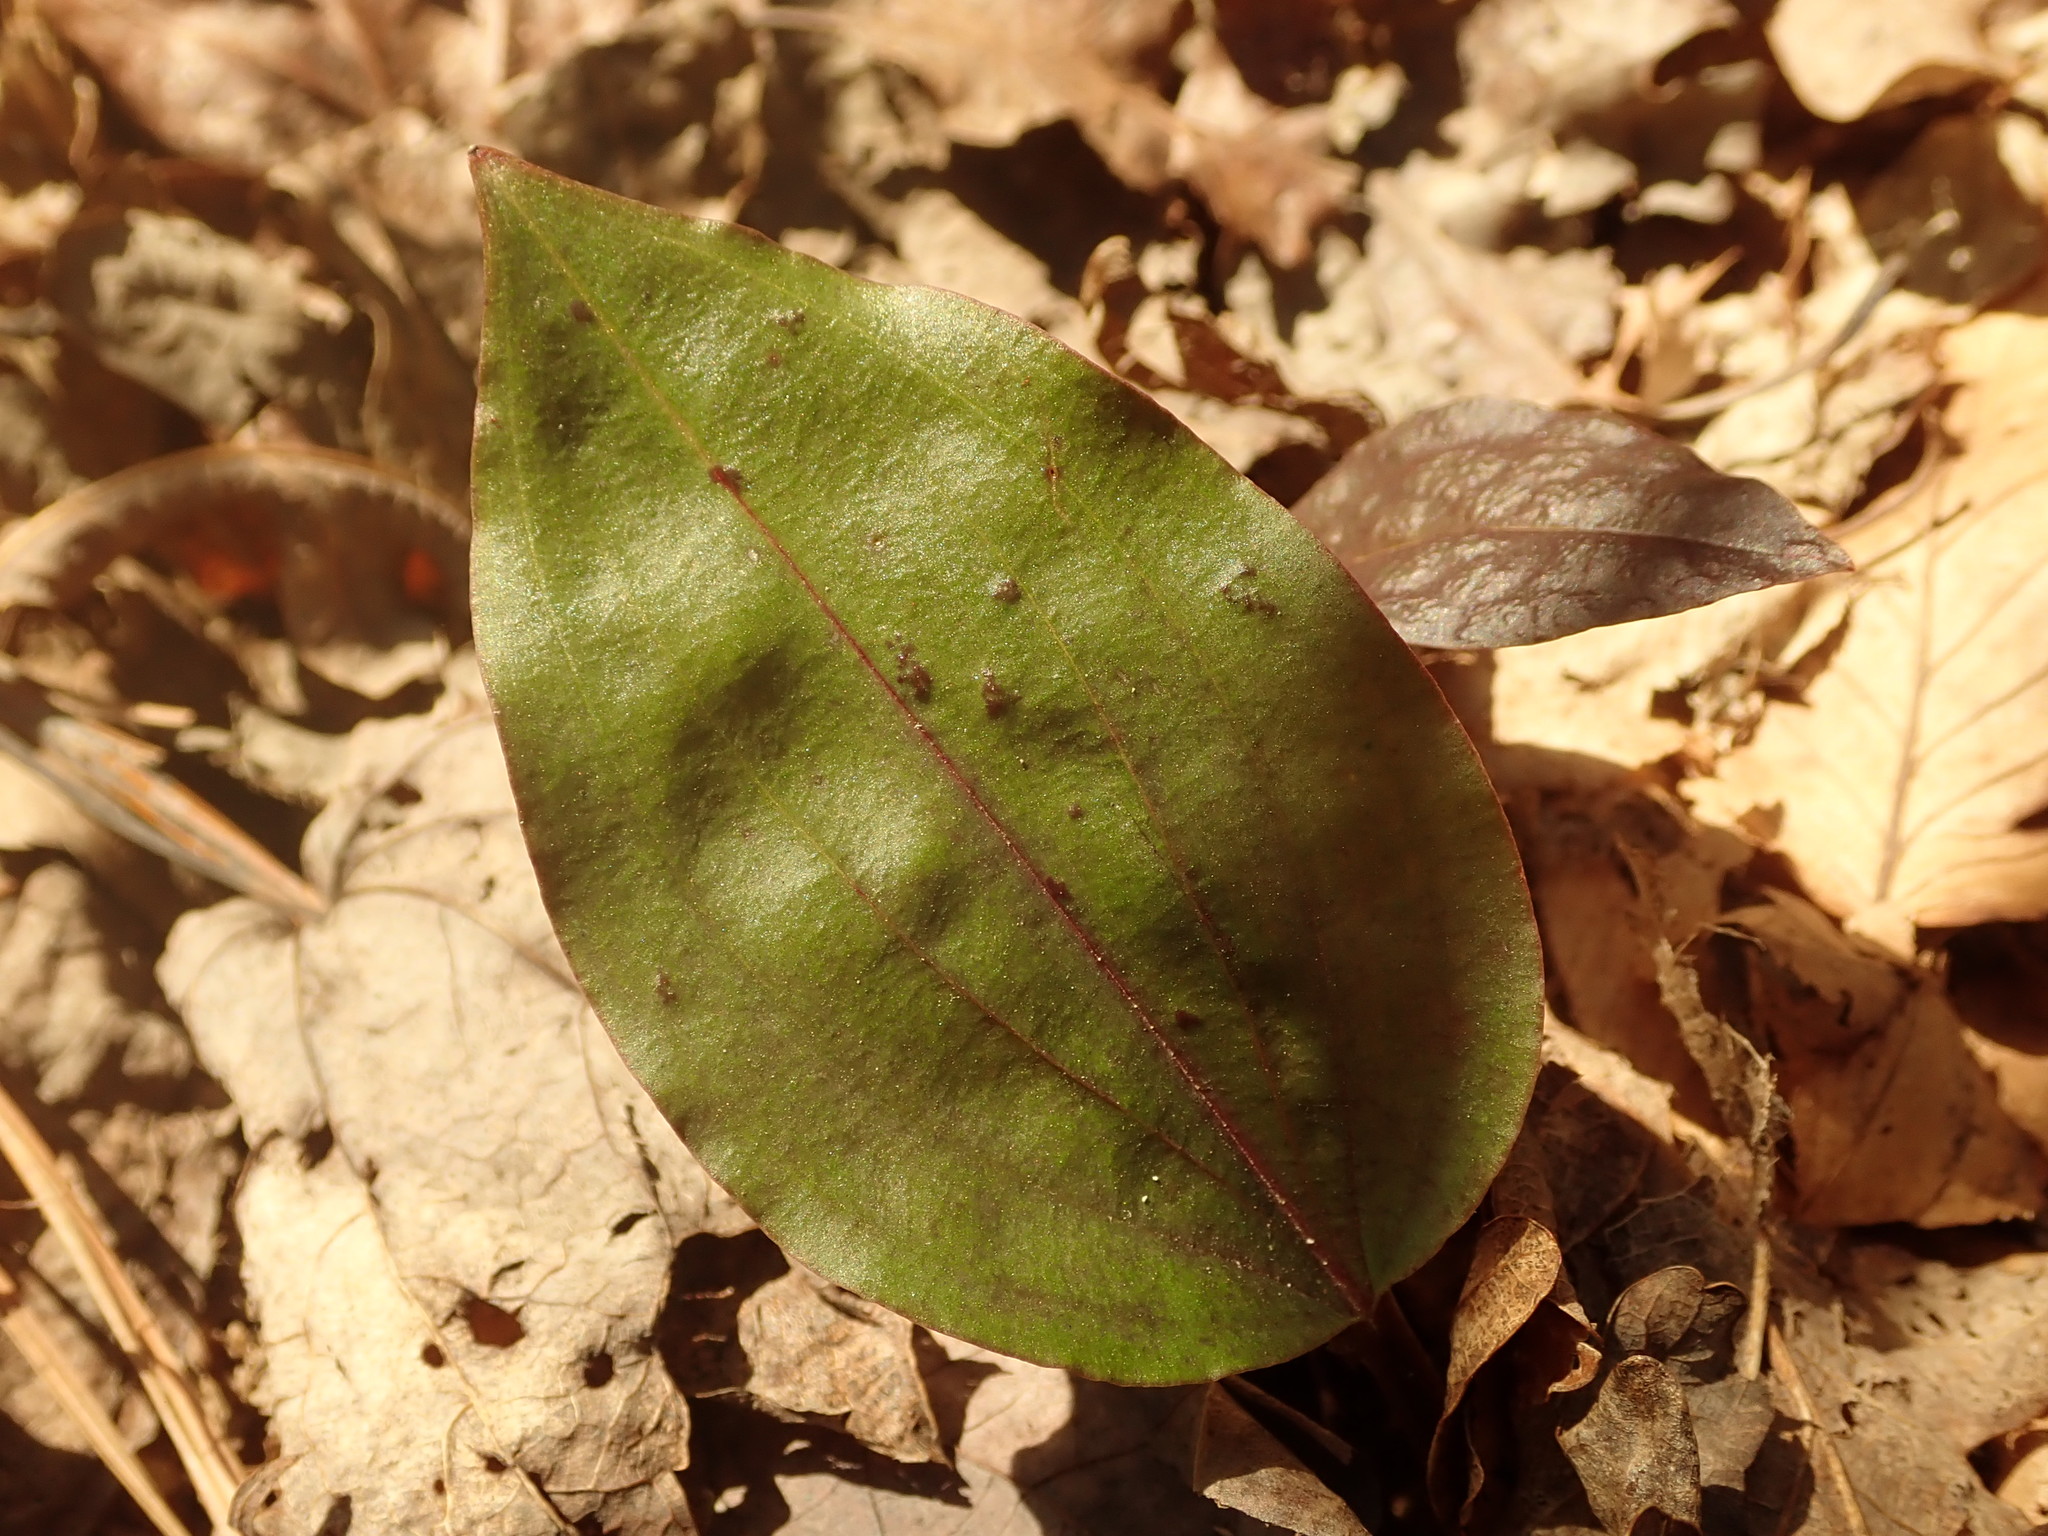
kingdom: Plantae
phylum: Tracheophyta
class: Liliopsida
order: Asparagales
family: Orchidaceae
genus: Tipularia
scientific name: Tipularia discolor
